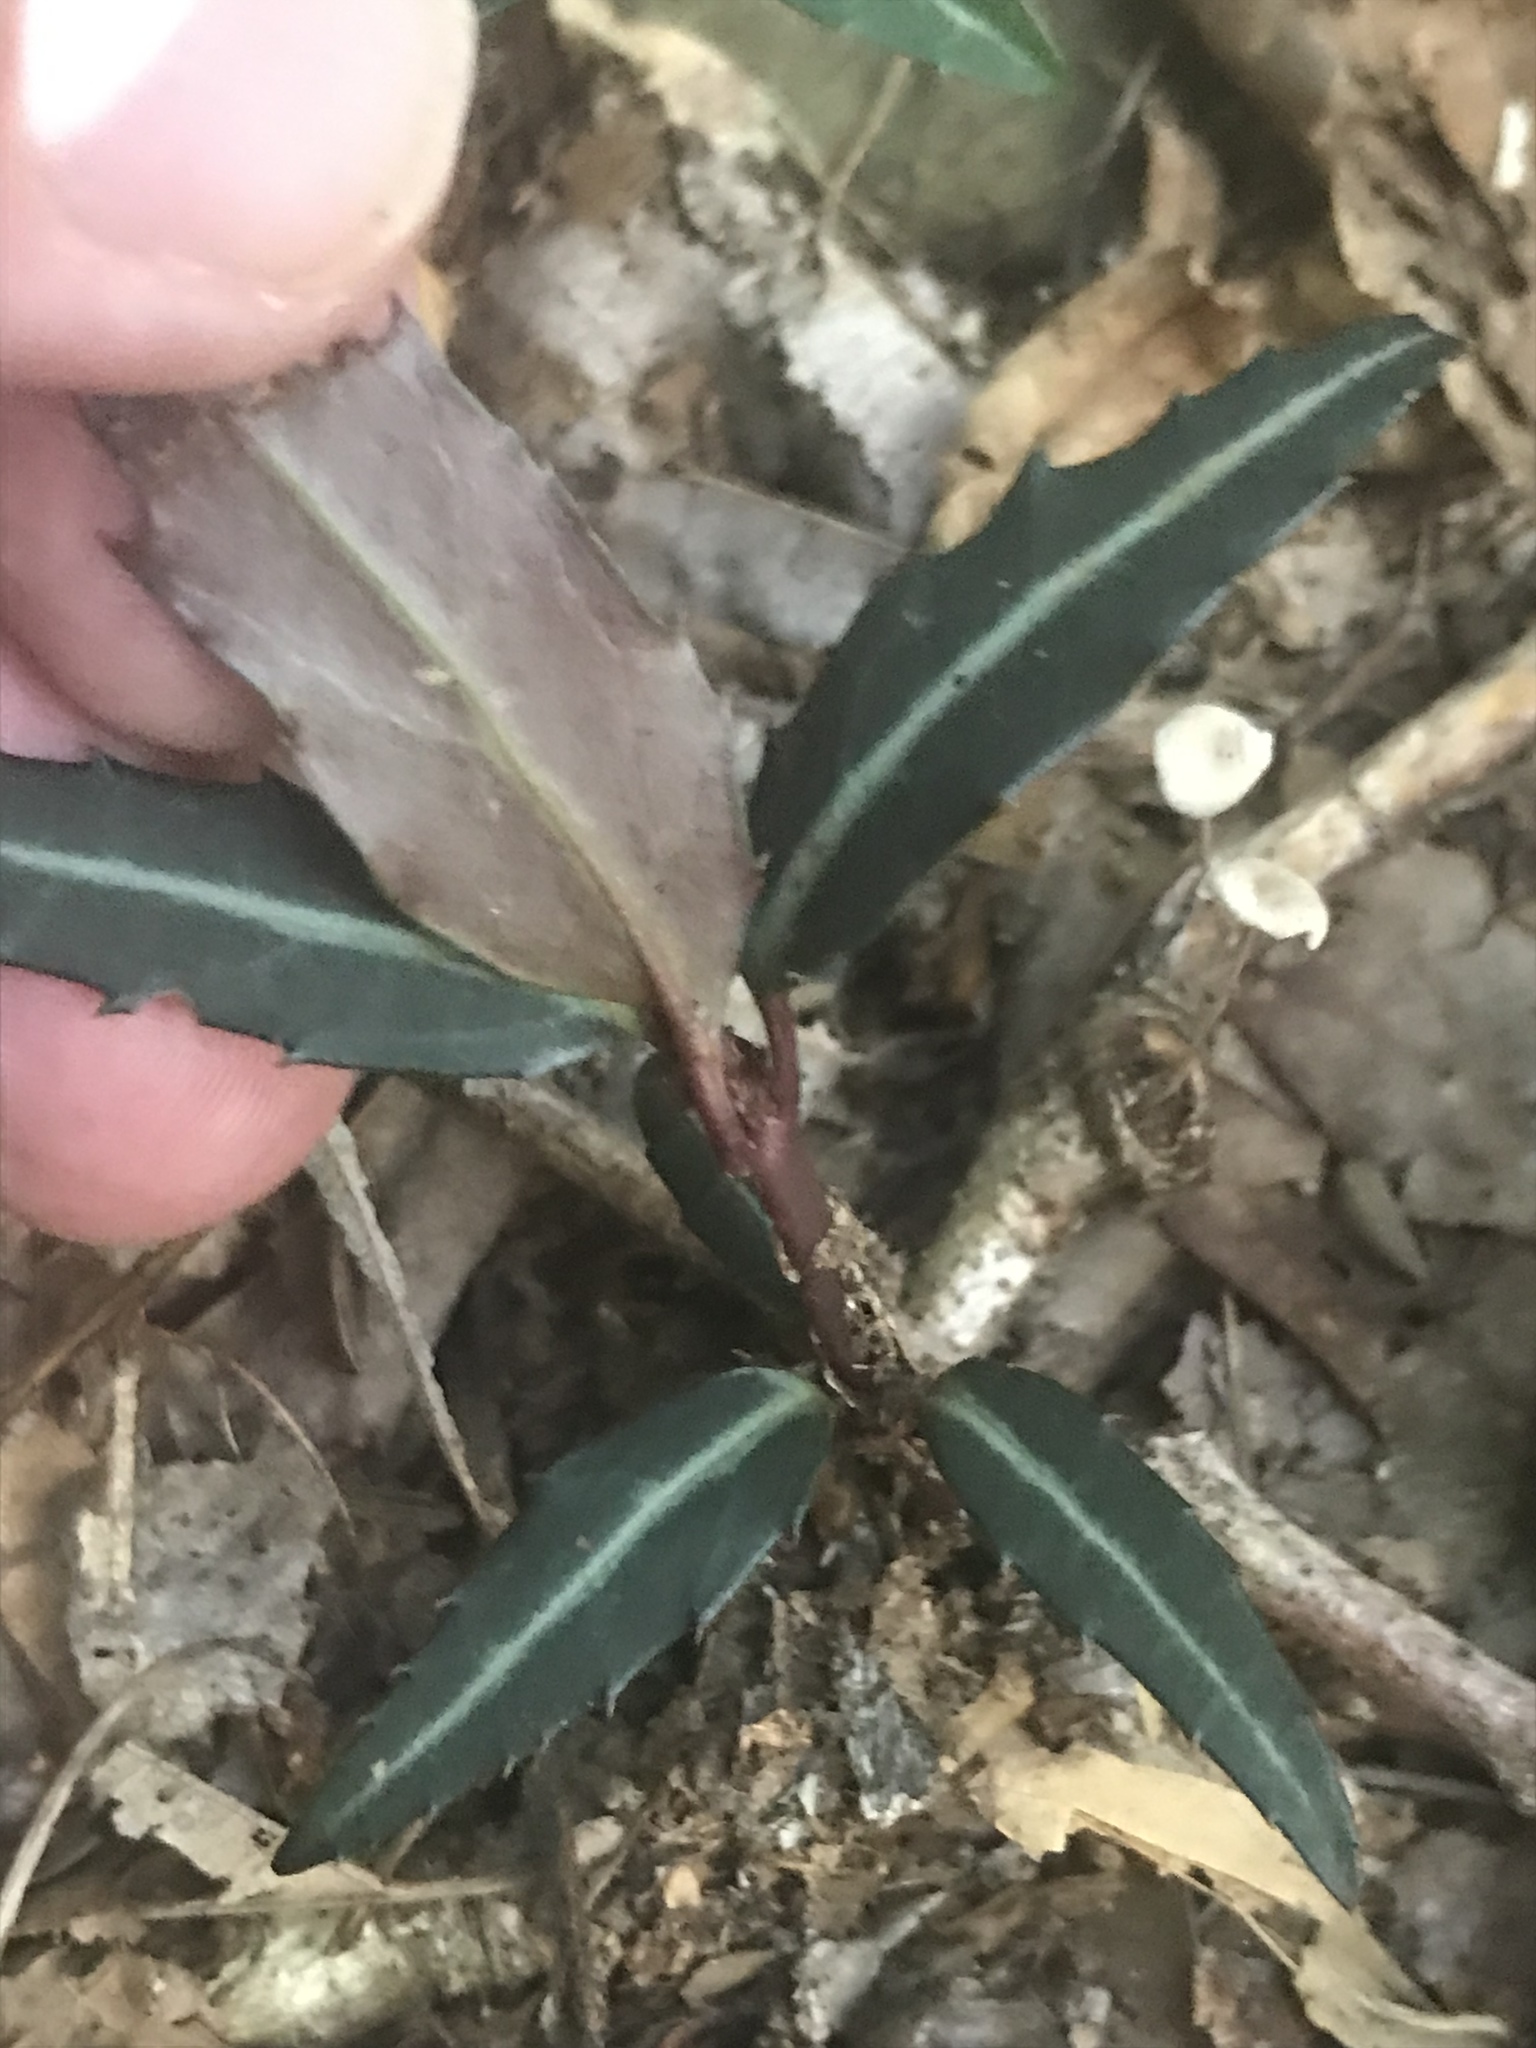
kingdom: Plantae
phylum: Tracheophyta
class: Magnoliopsida
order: Ericales
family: Ericaceae
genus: Chimaphila
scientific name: Chimaphila maculata
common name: Spotted pipsissewa
